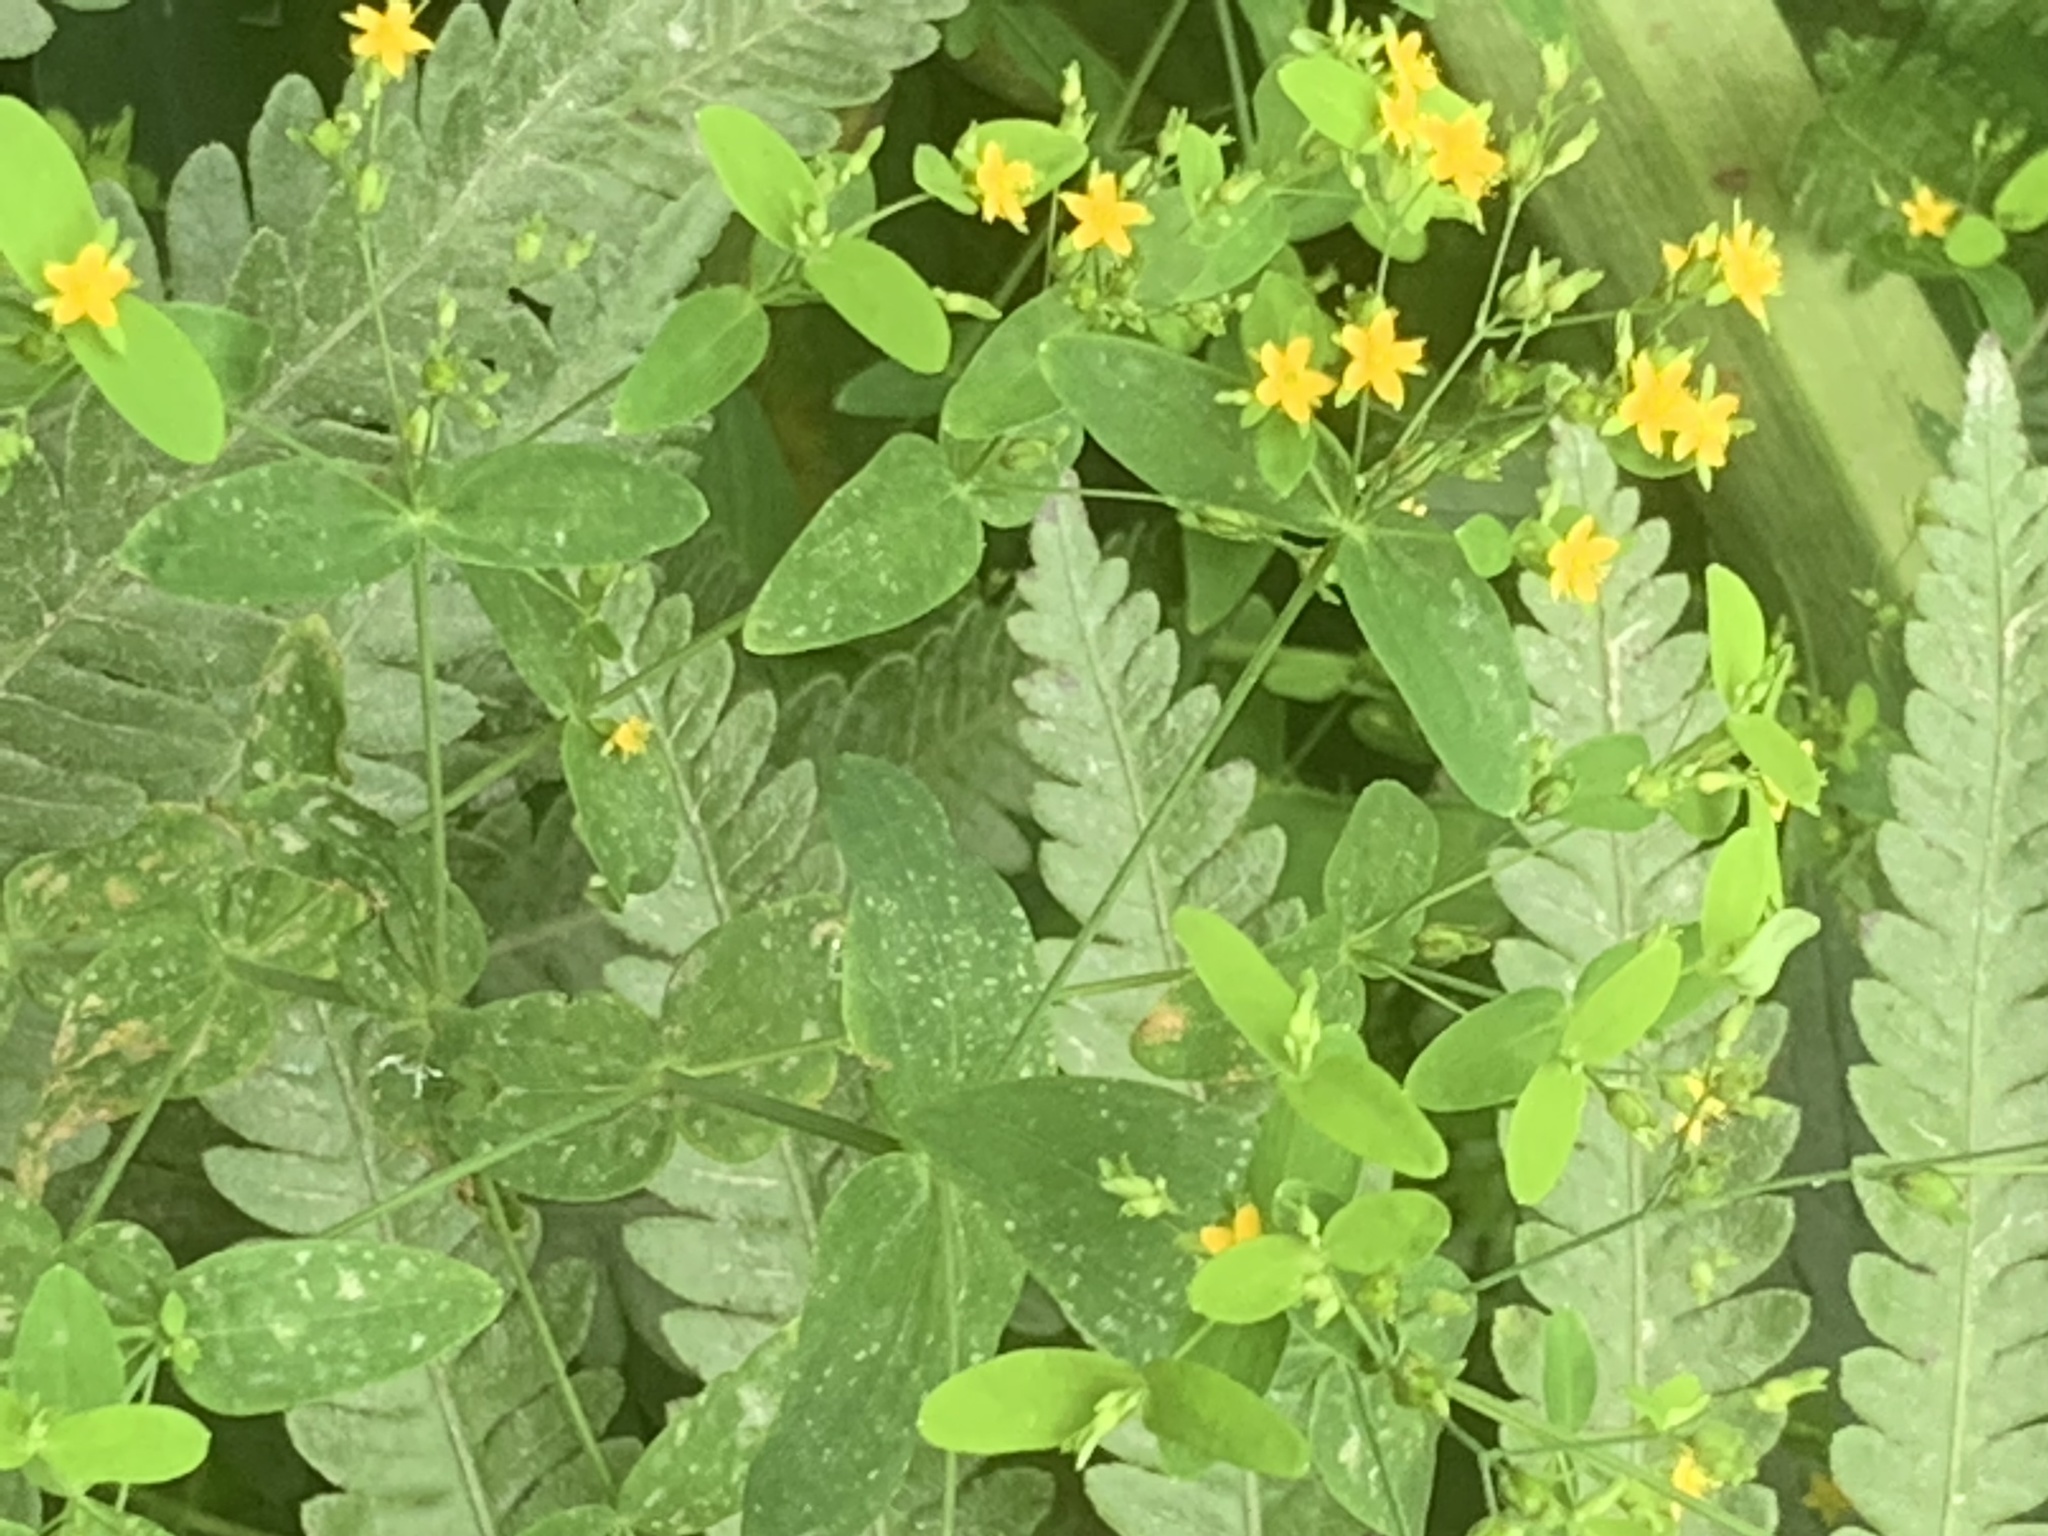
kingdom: Plantae
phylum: Tracheophyta
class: Magnoliopsida
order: Malpighiales
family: Hypericaceae
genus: Hypericum
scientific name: Hypericum mutilum
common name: Dwarf st. john's-wort
